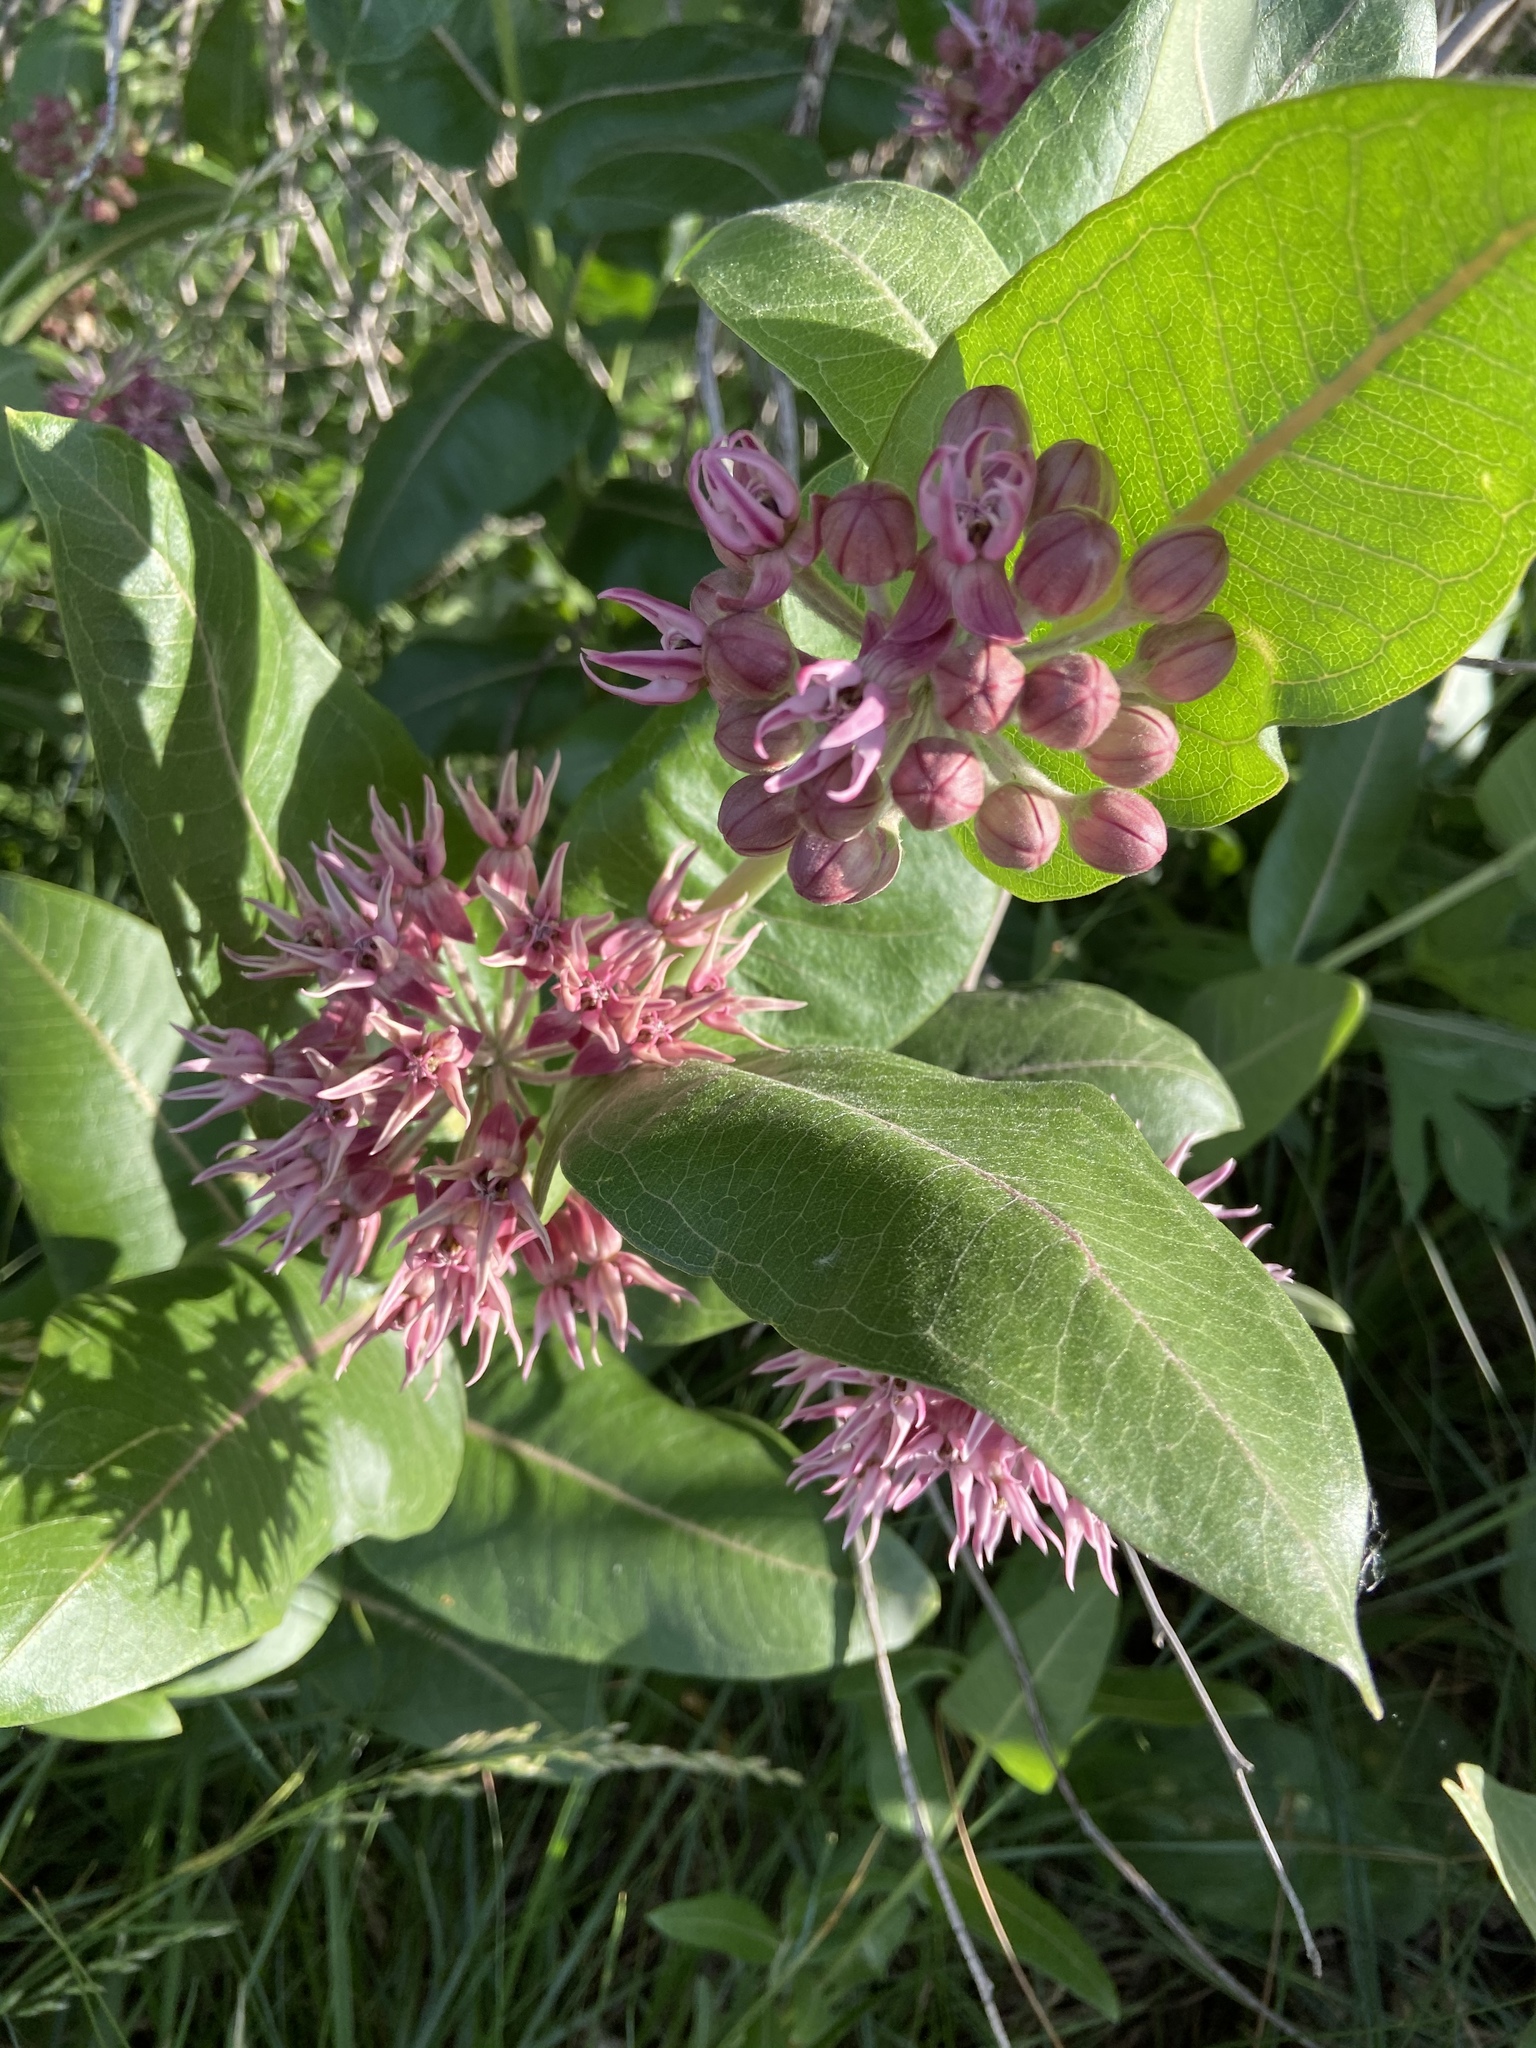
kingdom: Plantae
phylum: Tracheophyta
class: Magnoliopsida
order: Gentianales
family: Apocynaceae
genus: Asclepias
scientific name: Asclepias speciosa
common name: Showy milkweed
